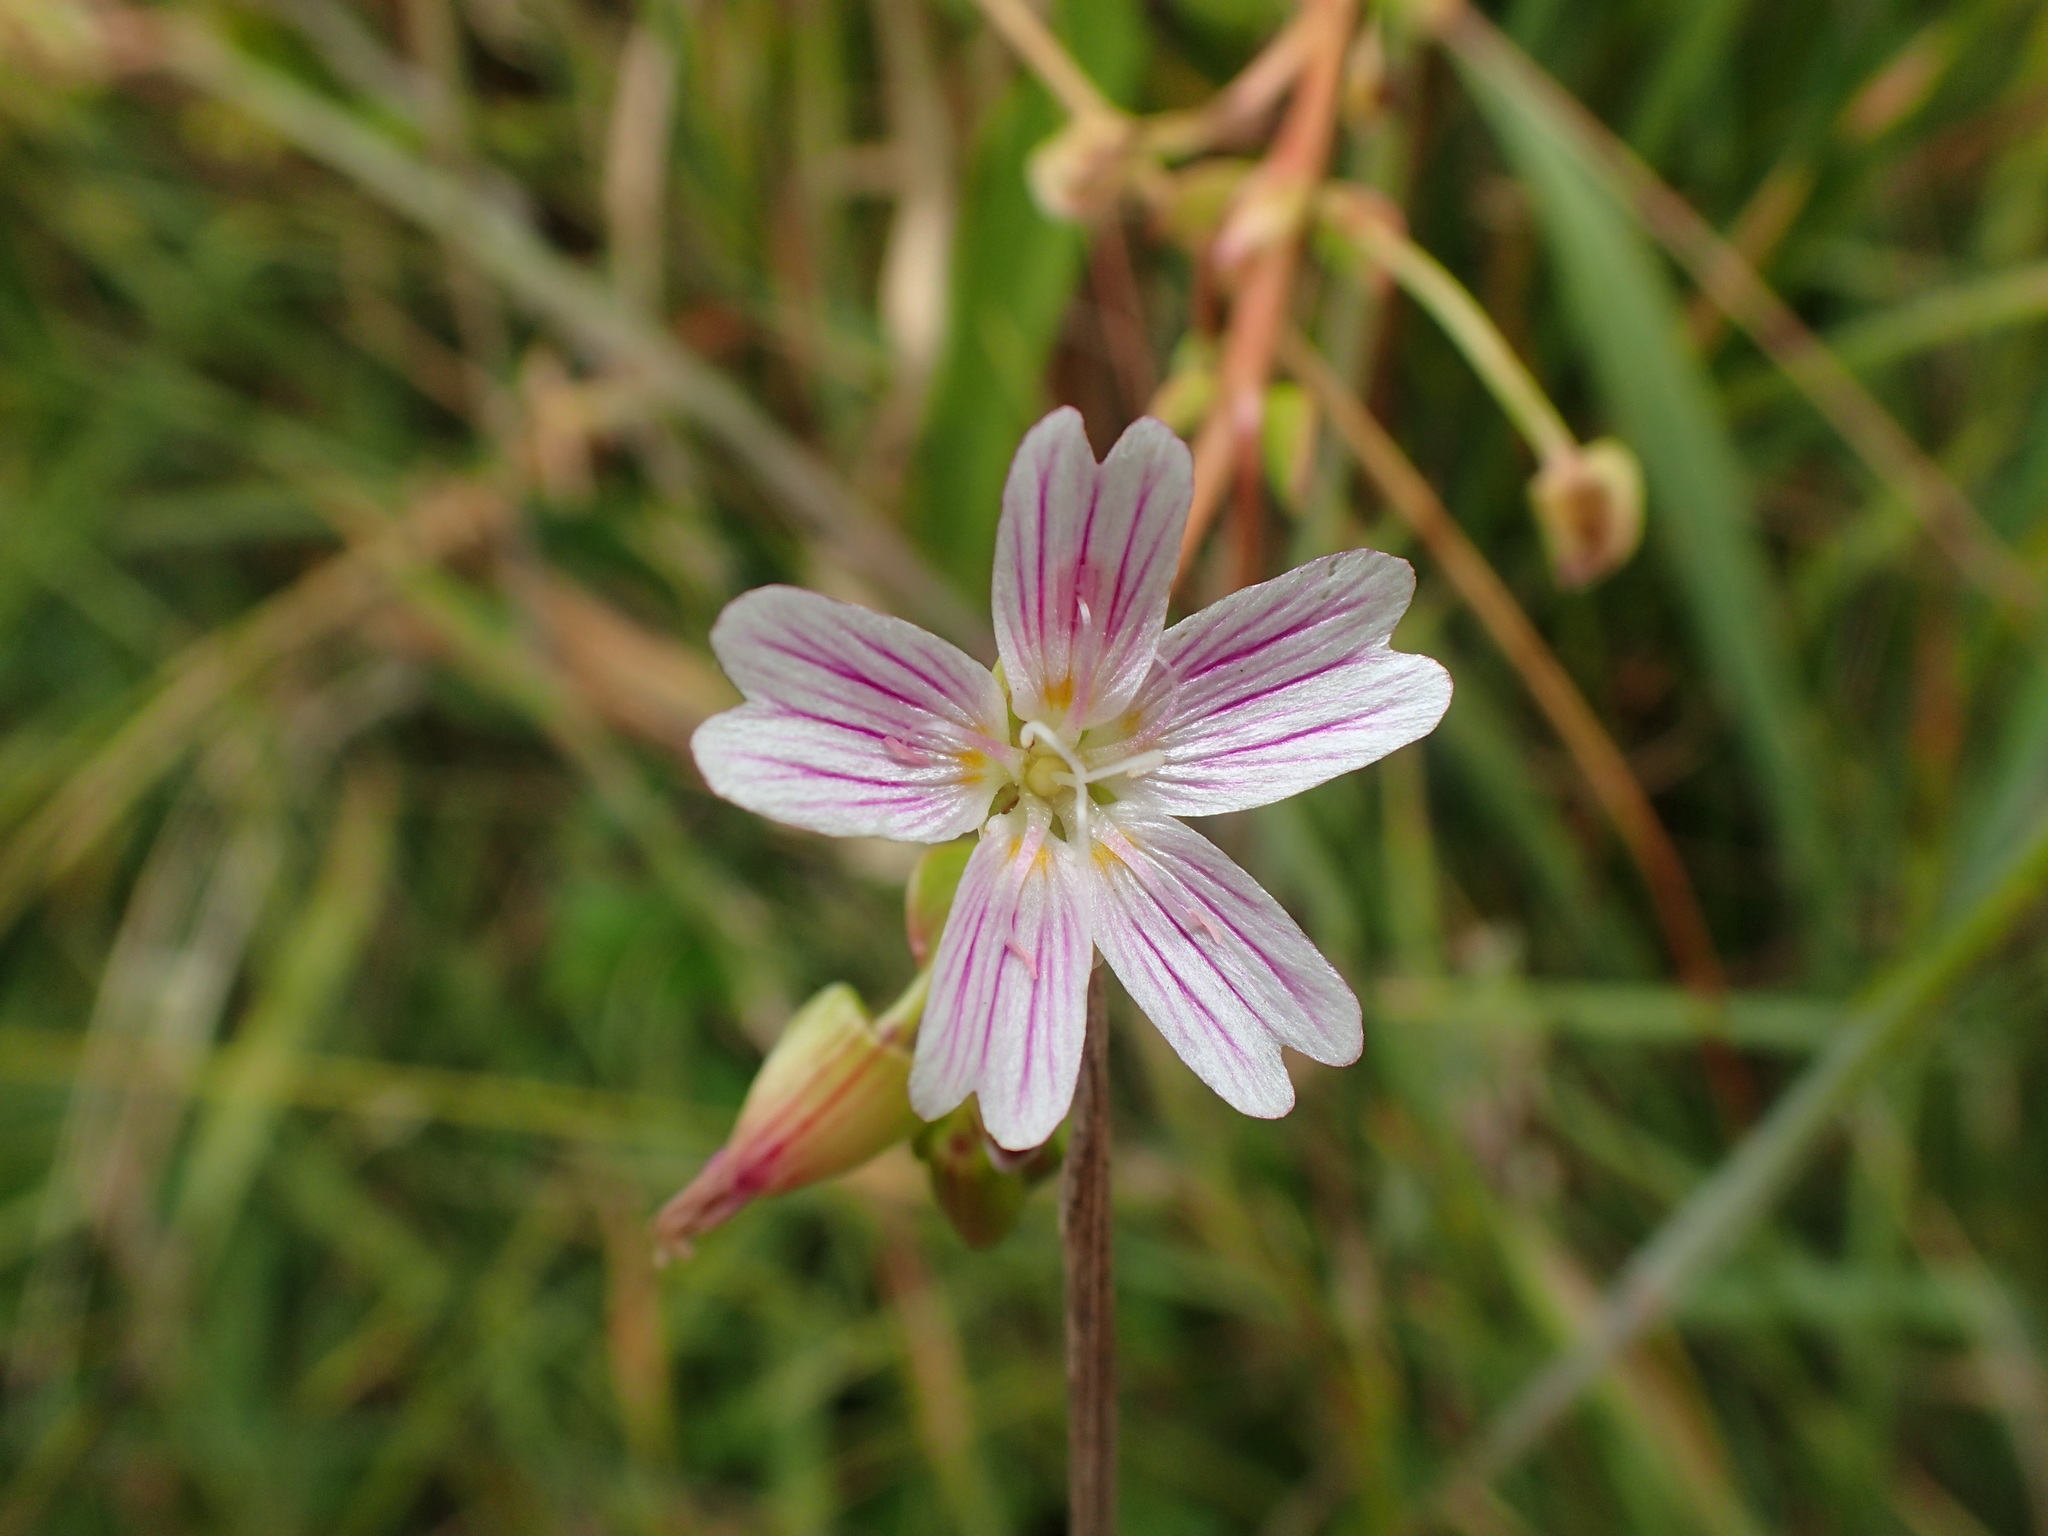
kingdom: Plantae
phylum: Tracheophyta
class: Magnoliopsida
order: Caryophyllales
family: Montiaceae
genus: Claytonia
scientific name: Claytonia sibirica
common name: Pink purslane
